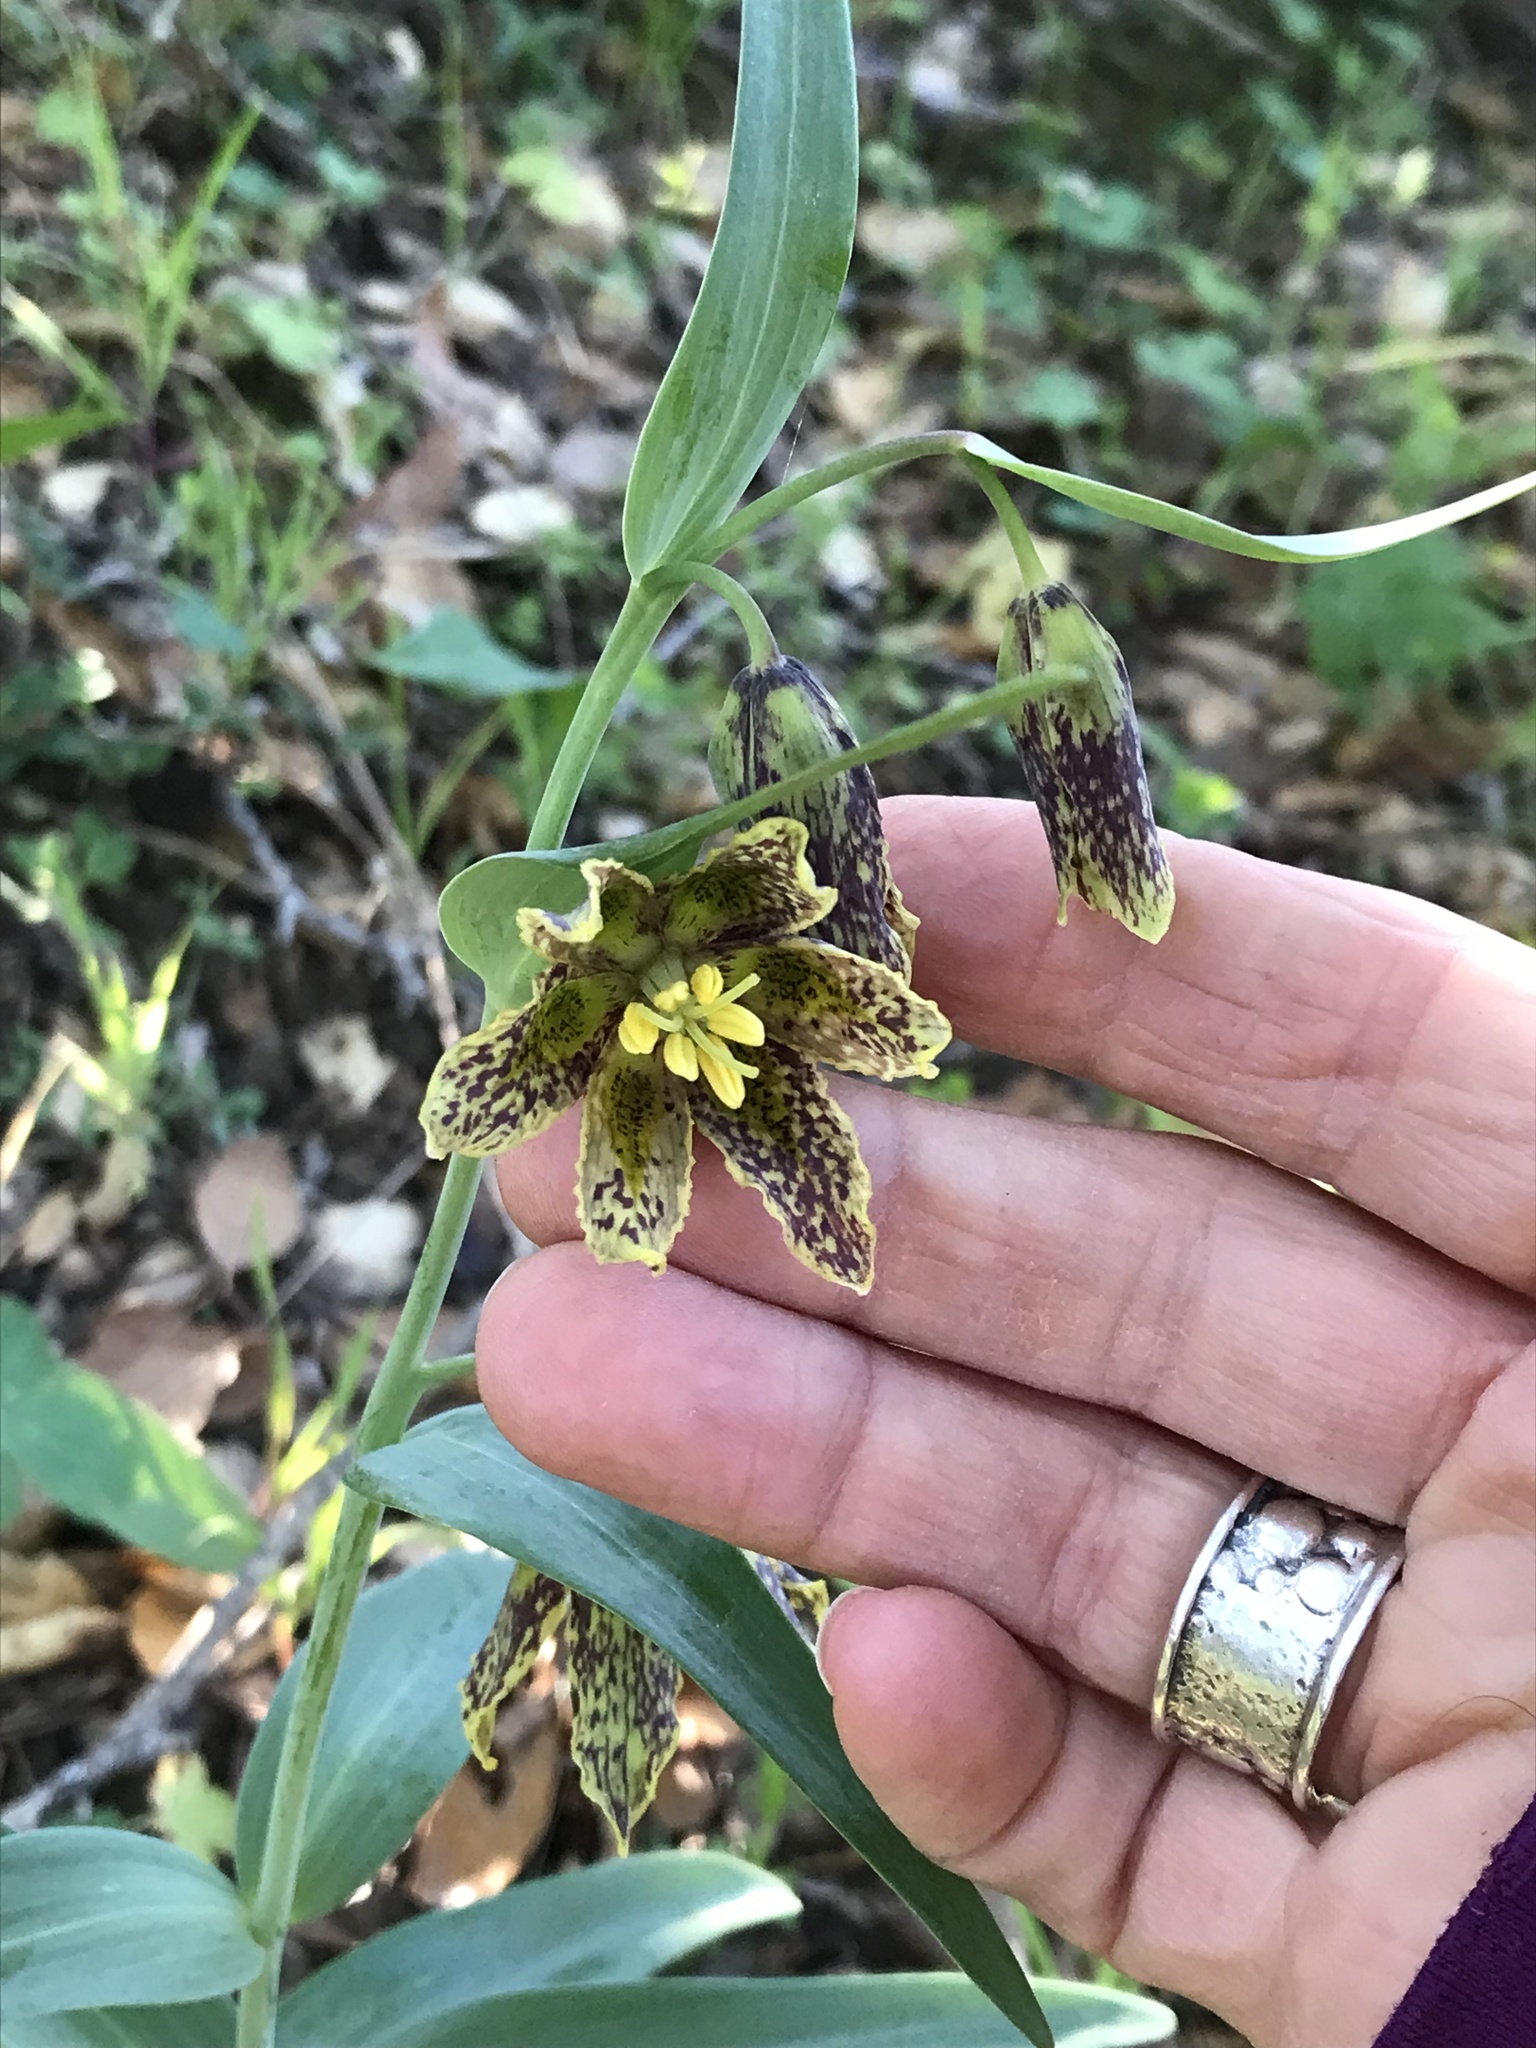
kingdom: Plantae
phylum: Tracheophyta
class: Liliopsida
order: Liliales
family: Liliaceae
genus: Fritillaria
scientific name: Fritillaria affinis
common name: Ojai fritillary
